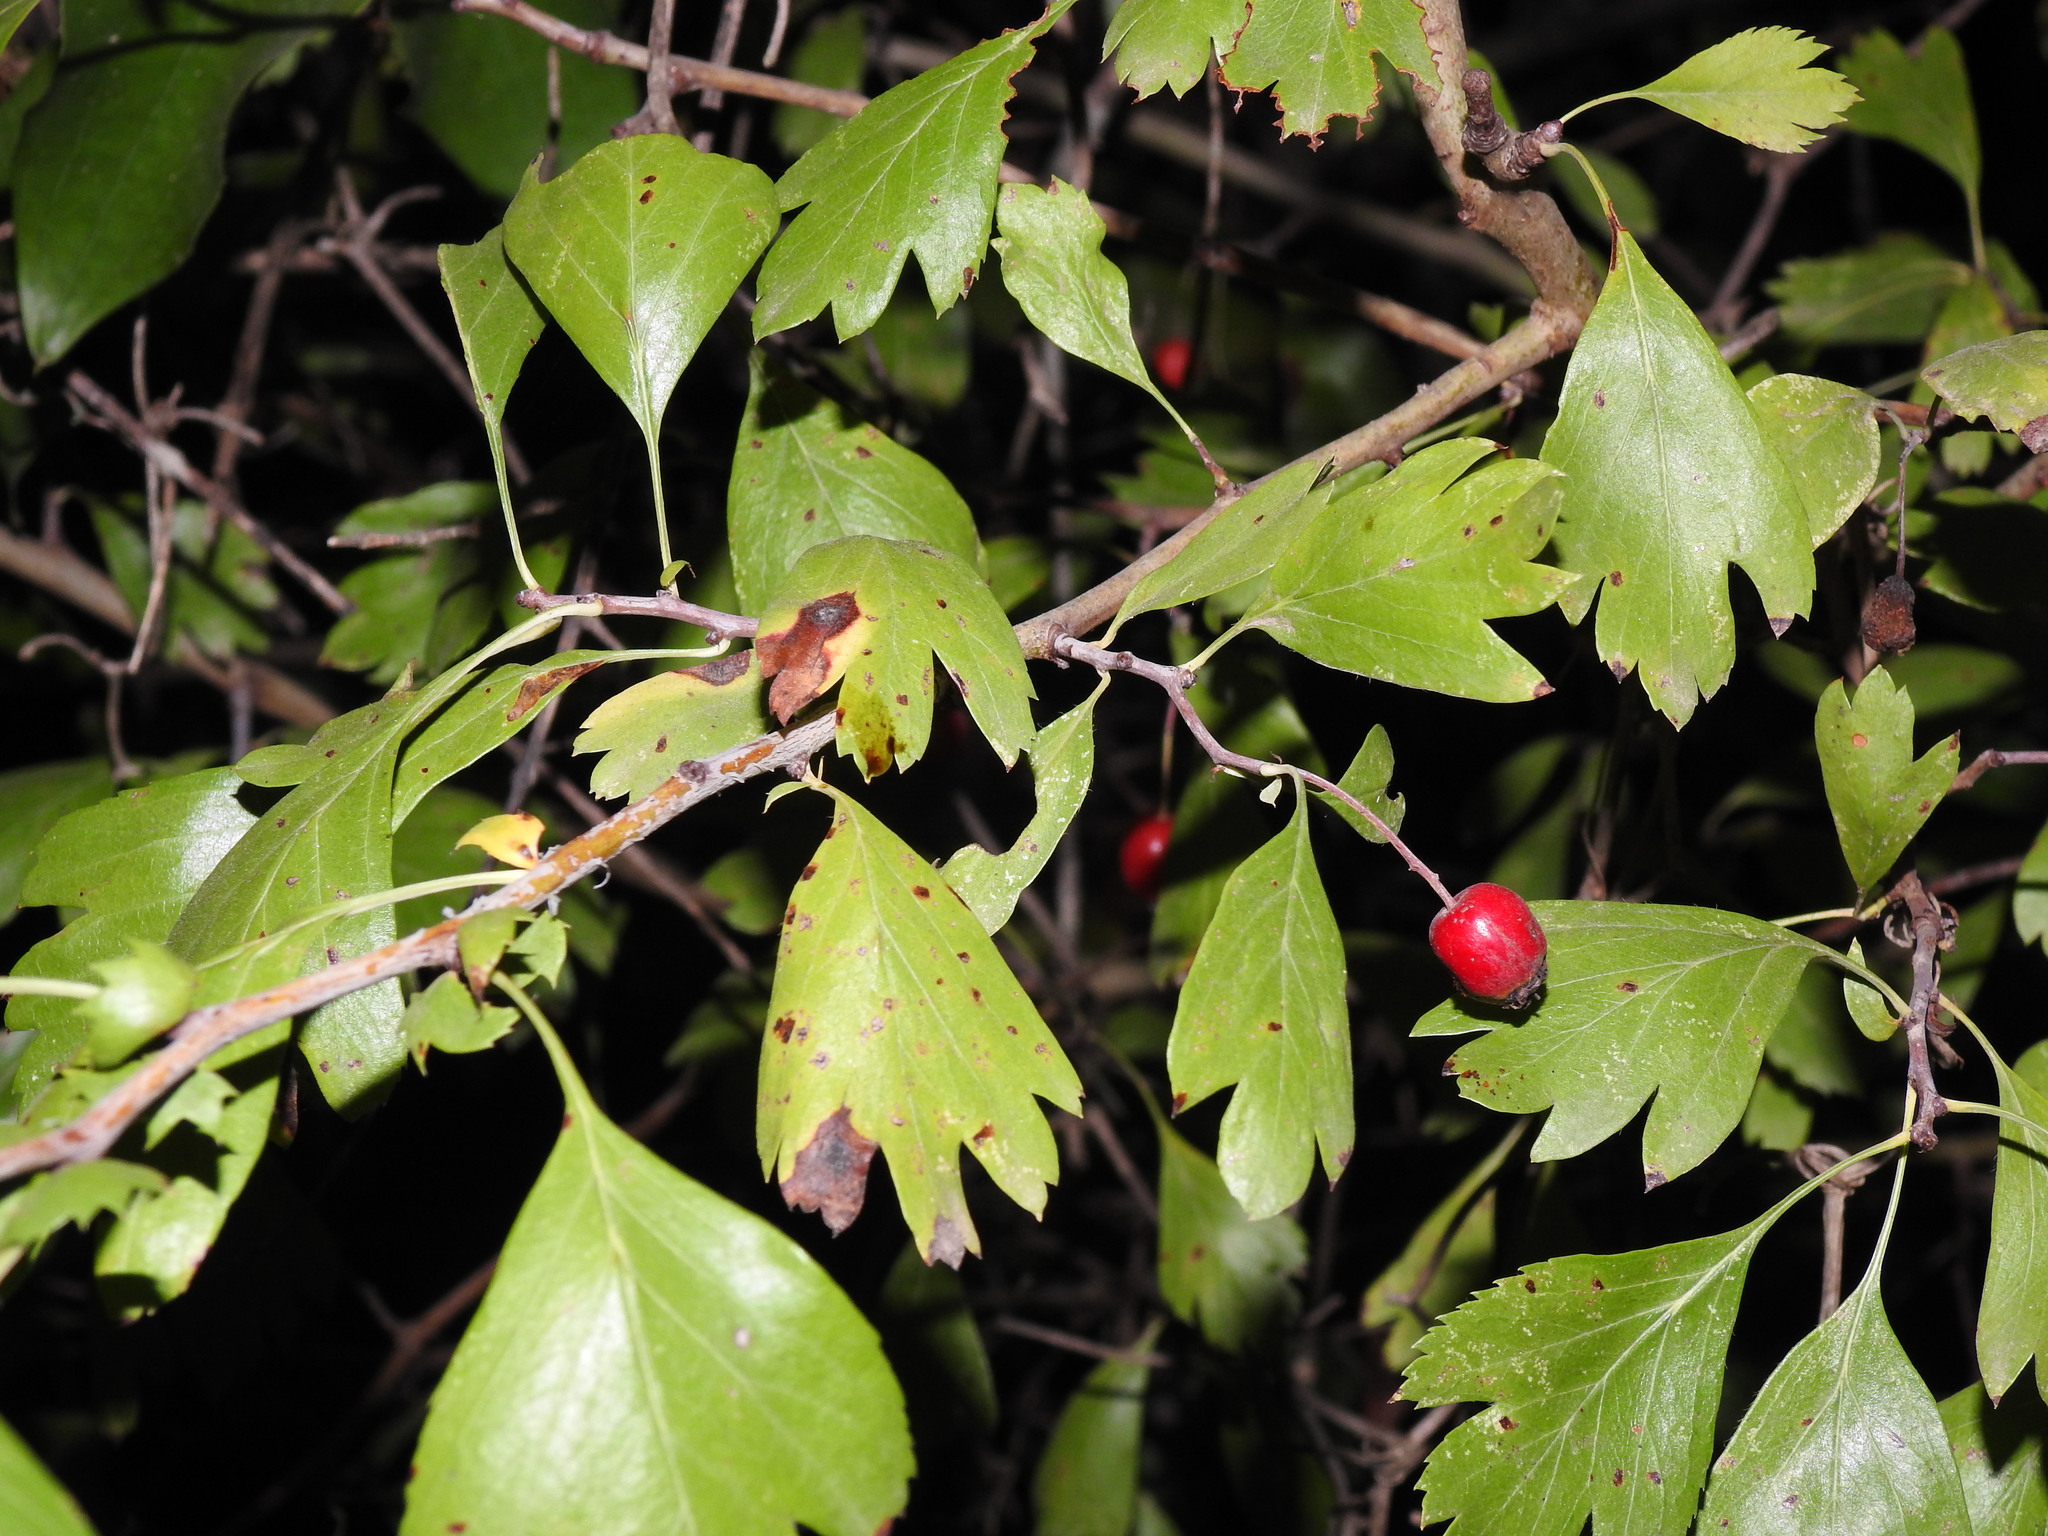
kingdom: Plantae
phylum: Tracheophyta
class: Magnoliopsida
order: Rosales
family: Rosaceae
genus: Crataegus
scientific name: Crataegus monogyna
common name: Hawthorn
